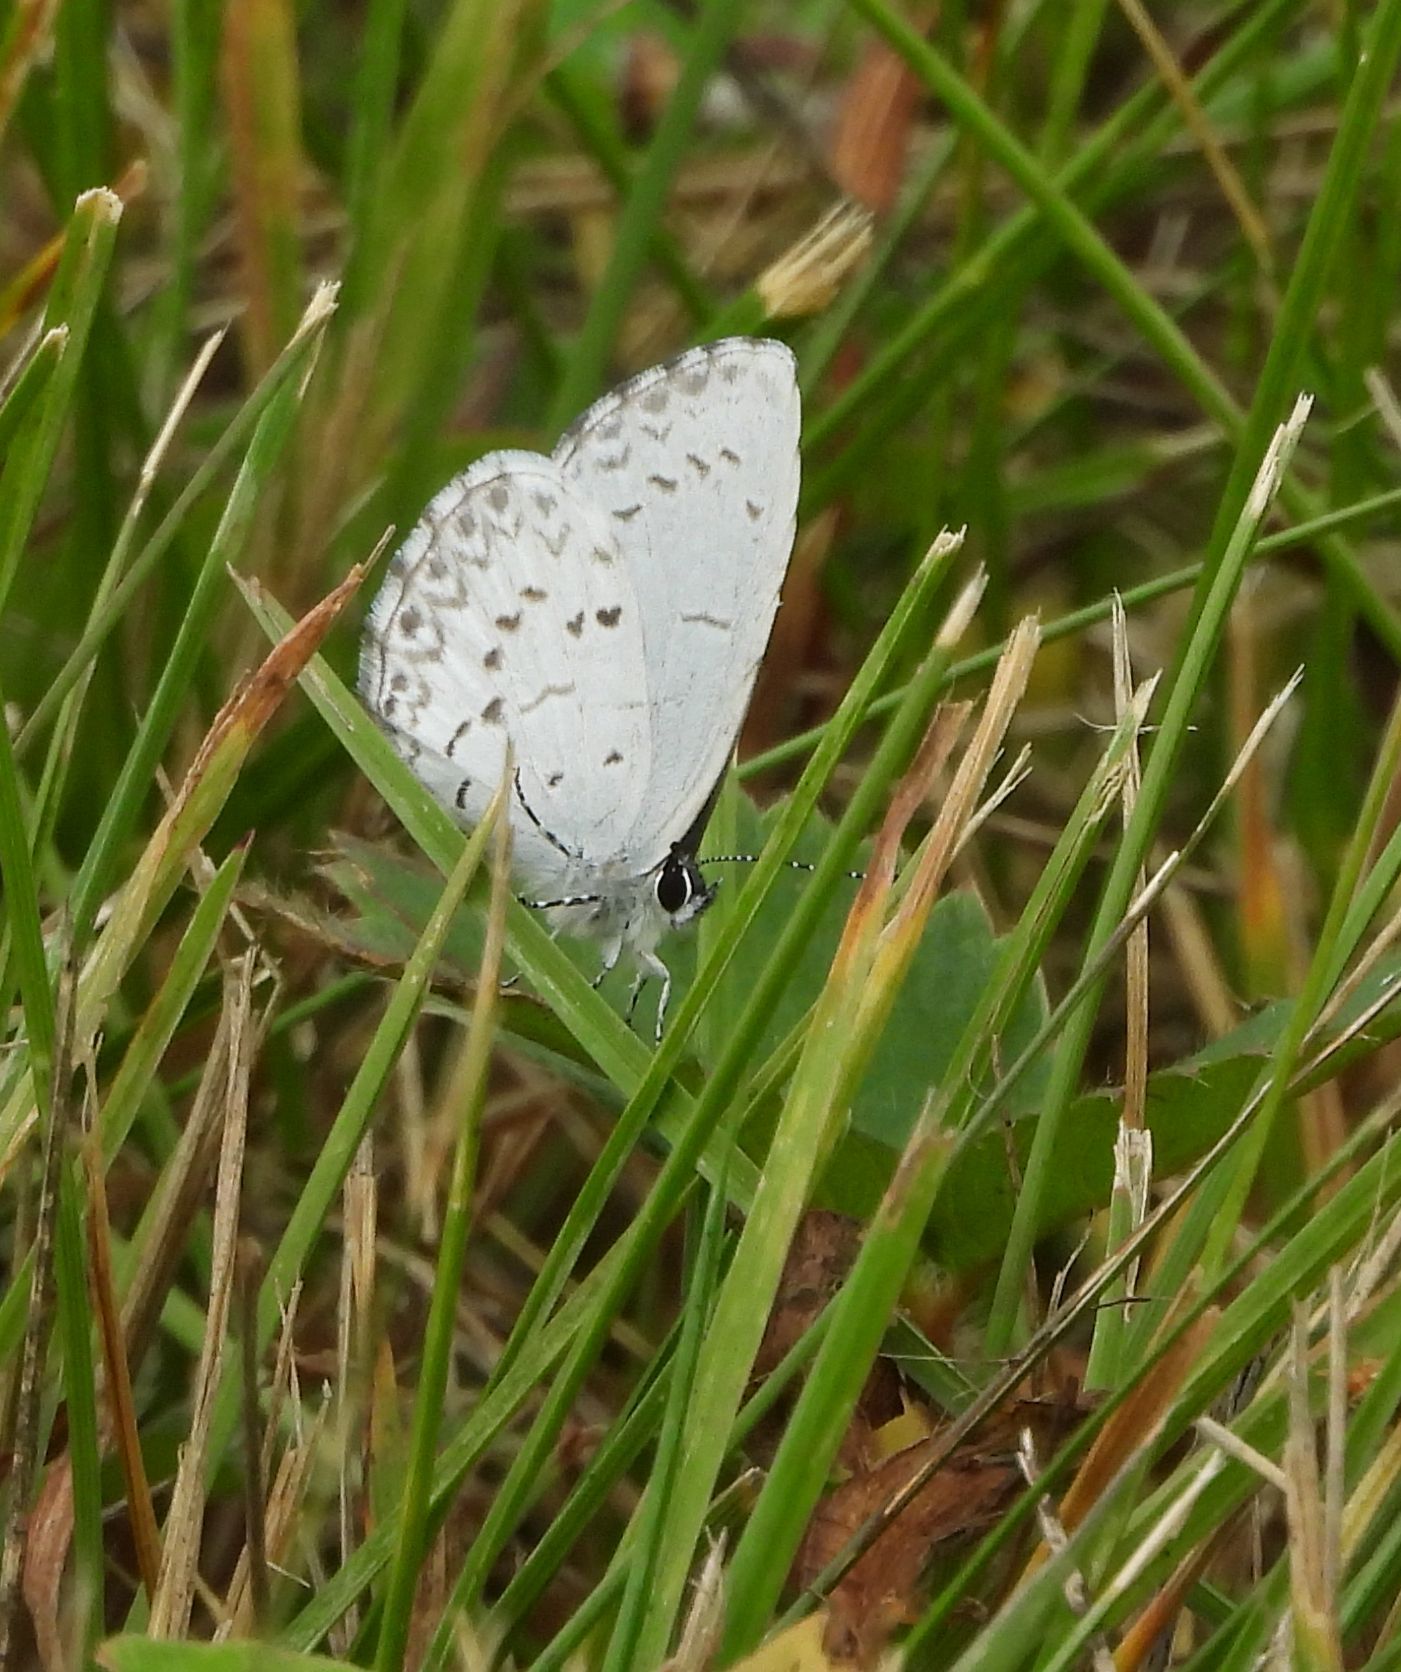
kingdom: Animalia
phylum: Arthropoda
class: Insecta
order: Lepidoptera
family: Lycaenidae
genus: Celastrina
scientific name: Celastrina lucia
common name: Lucia azure
